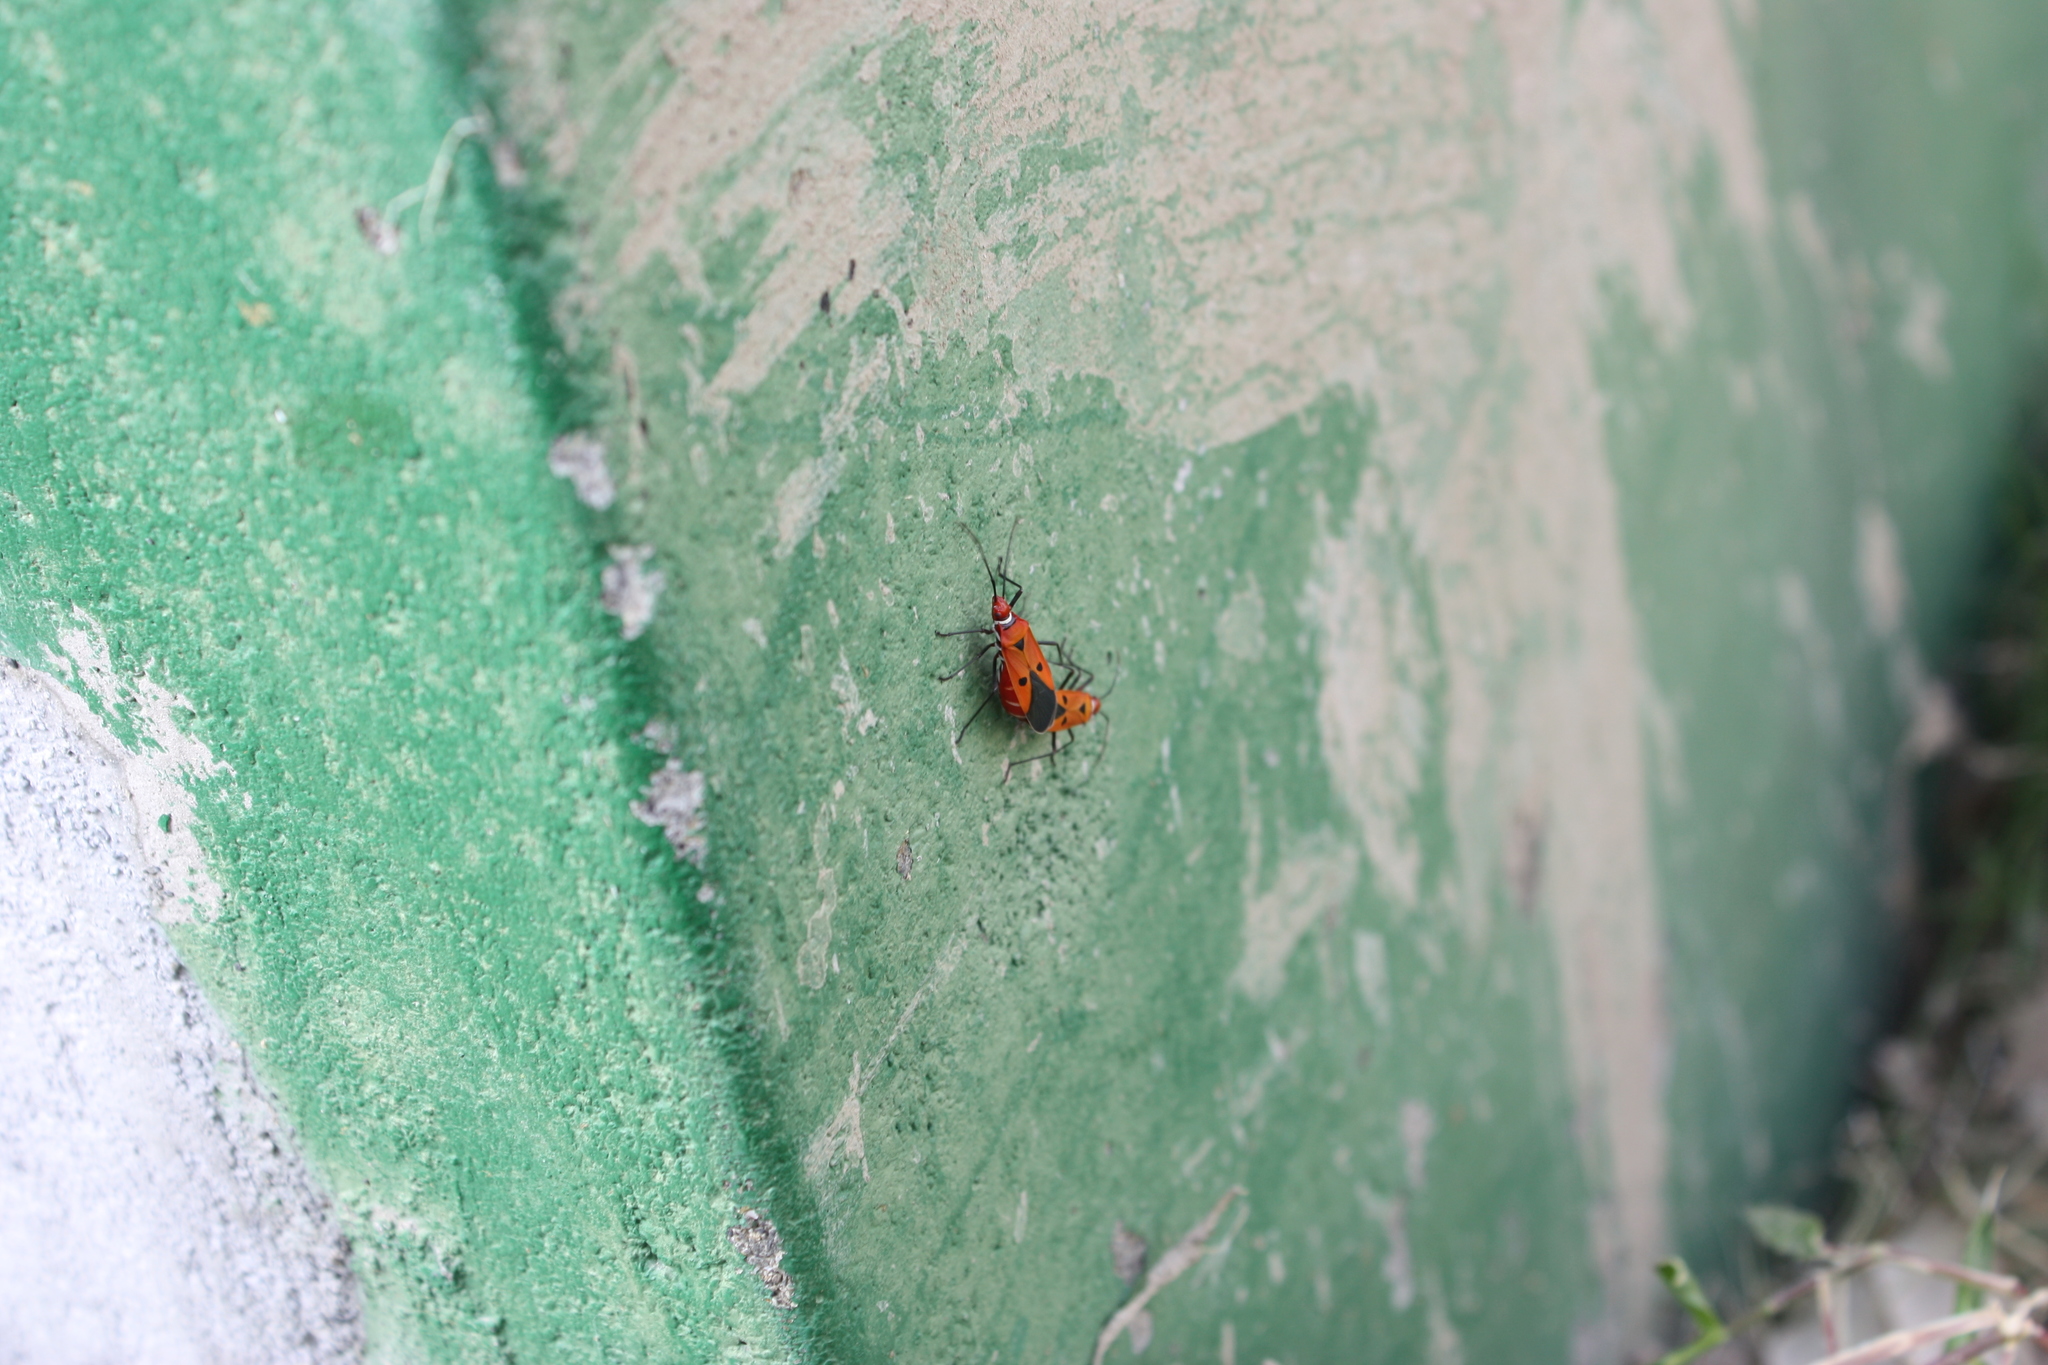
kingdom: Animalia
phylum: Arthropoda
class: Insecta
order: Hemiptera
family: Pyrrhocoridae
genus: Dysdercus
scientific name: Dysdercus cingulatus
